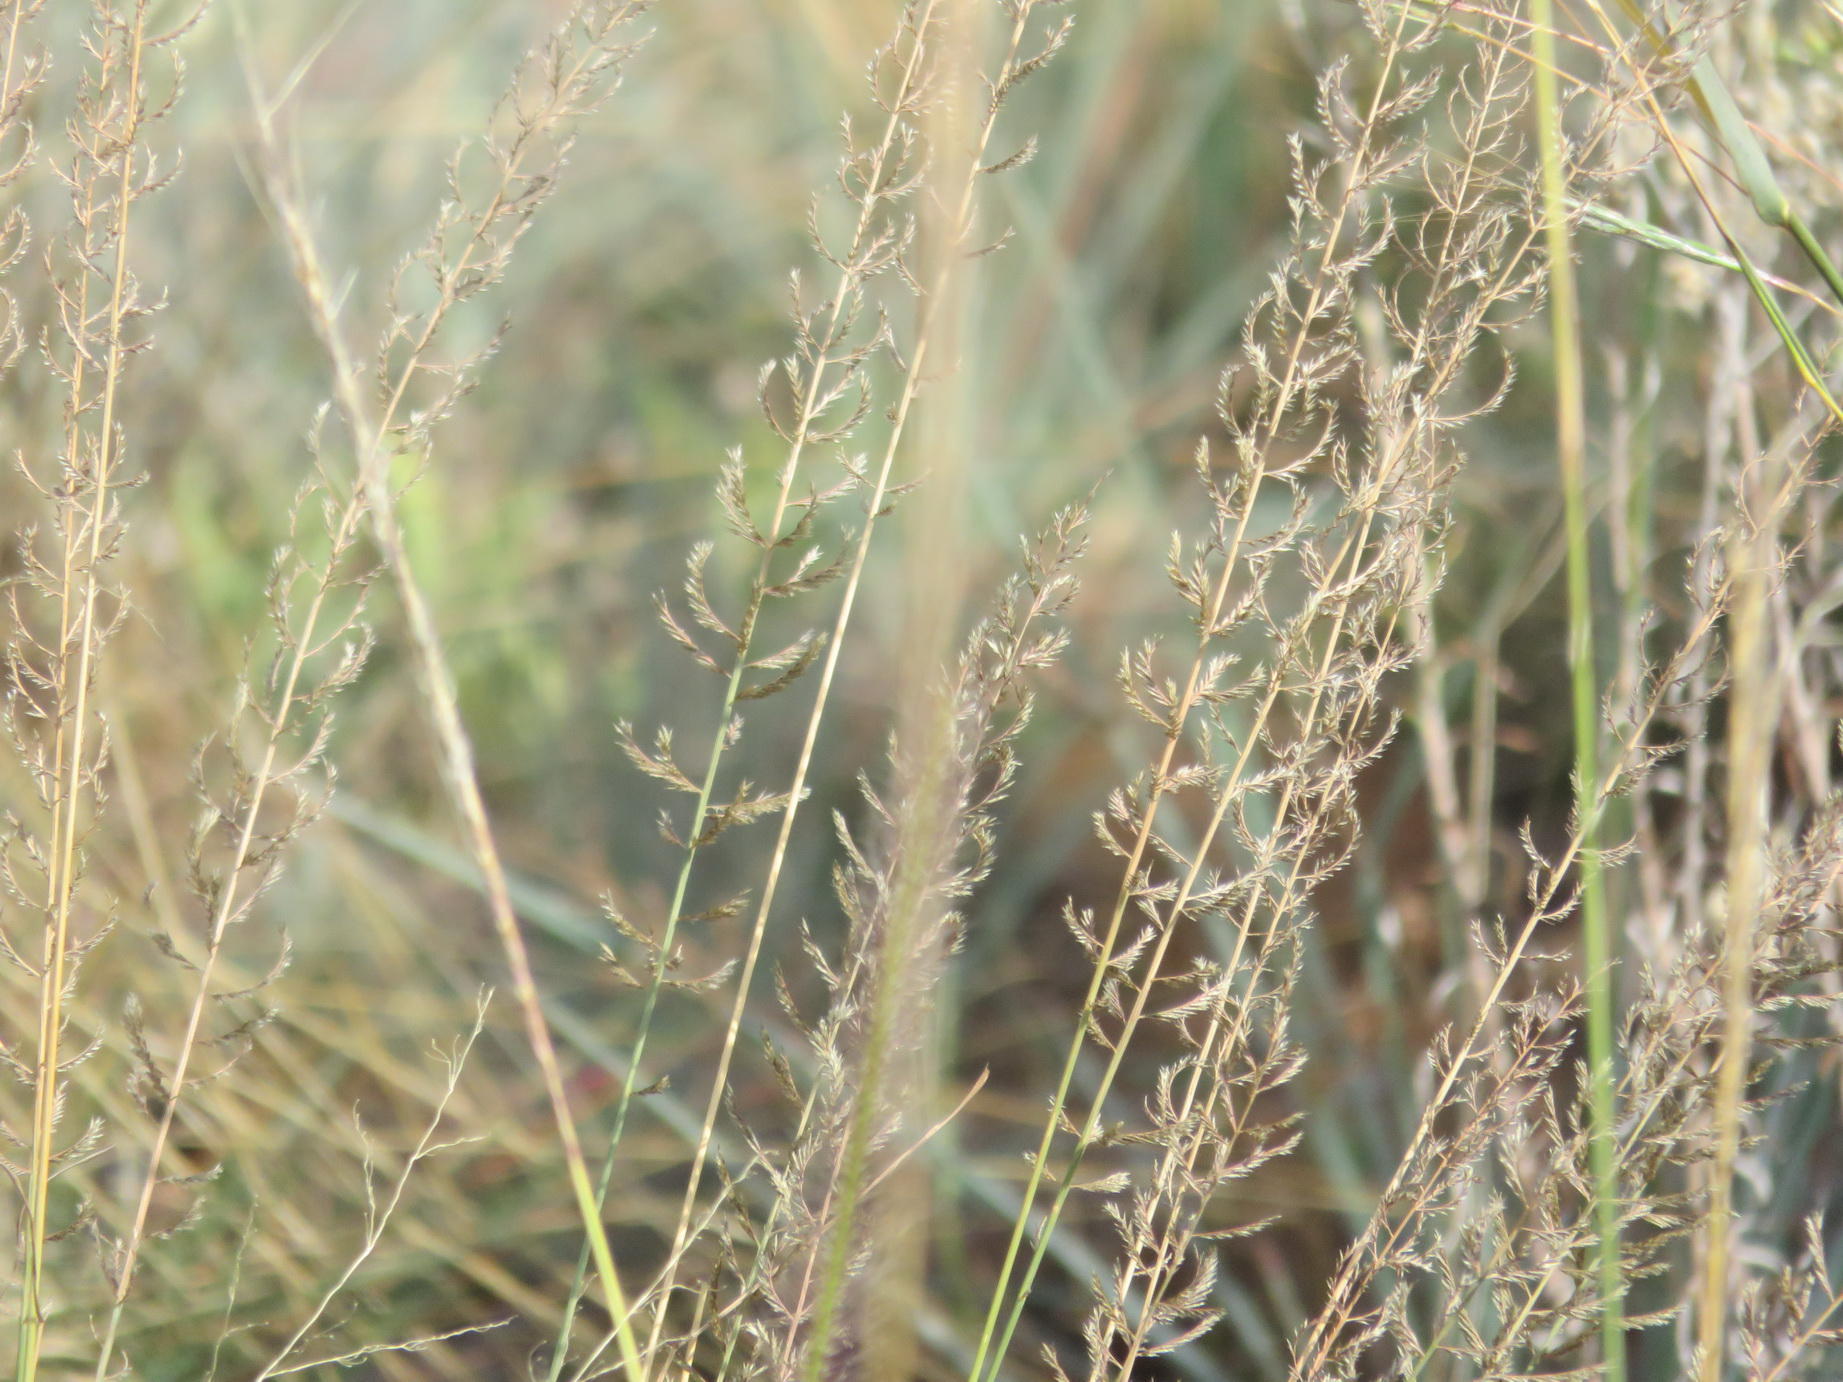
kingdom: Plantae
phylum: Tracheophyta
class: Liliopsida
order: Poales
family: Poaceae
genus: Pogonarthria
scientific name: Pogonarthria squarrosa
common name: Grass
